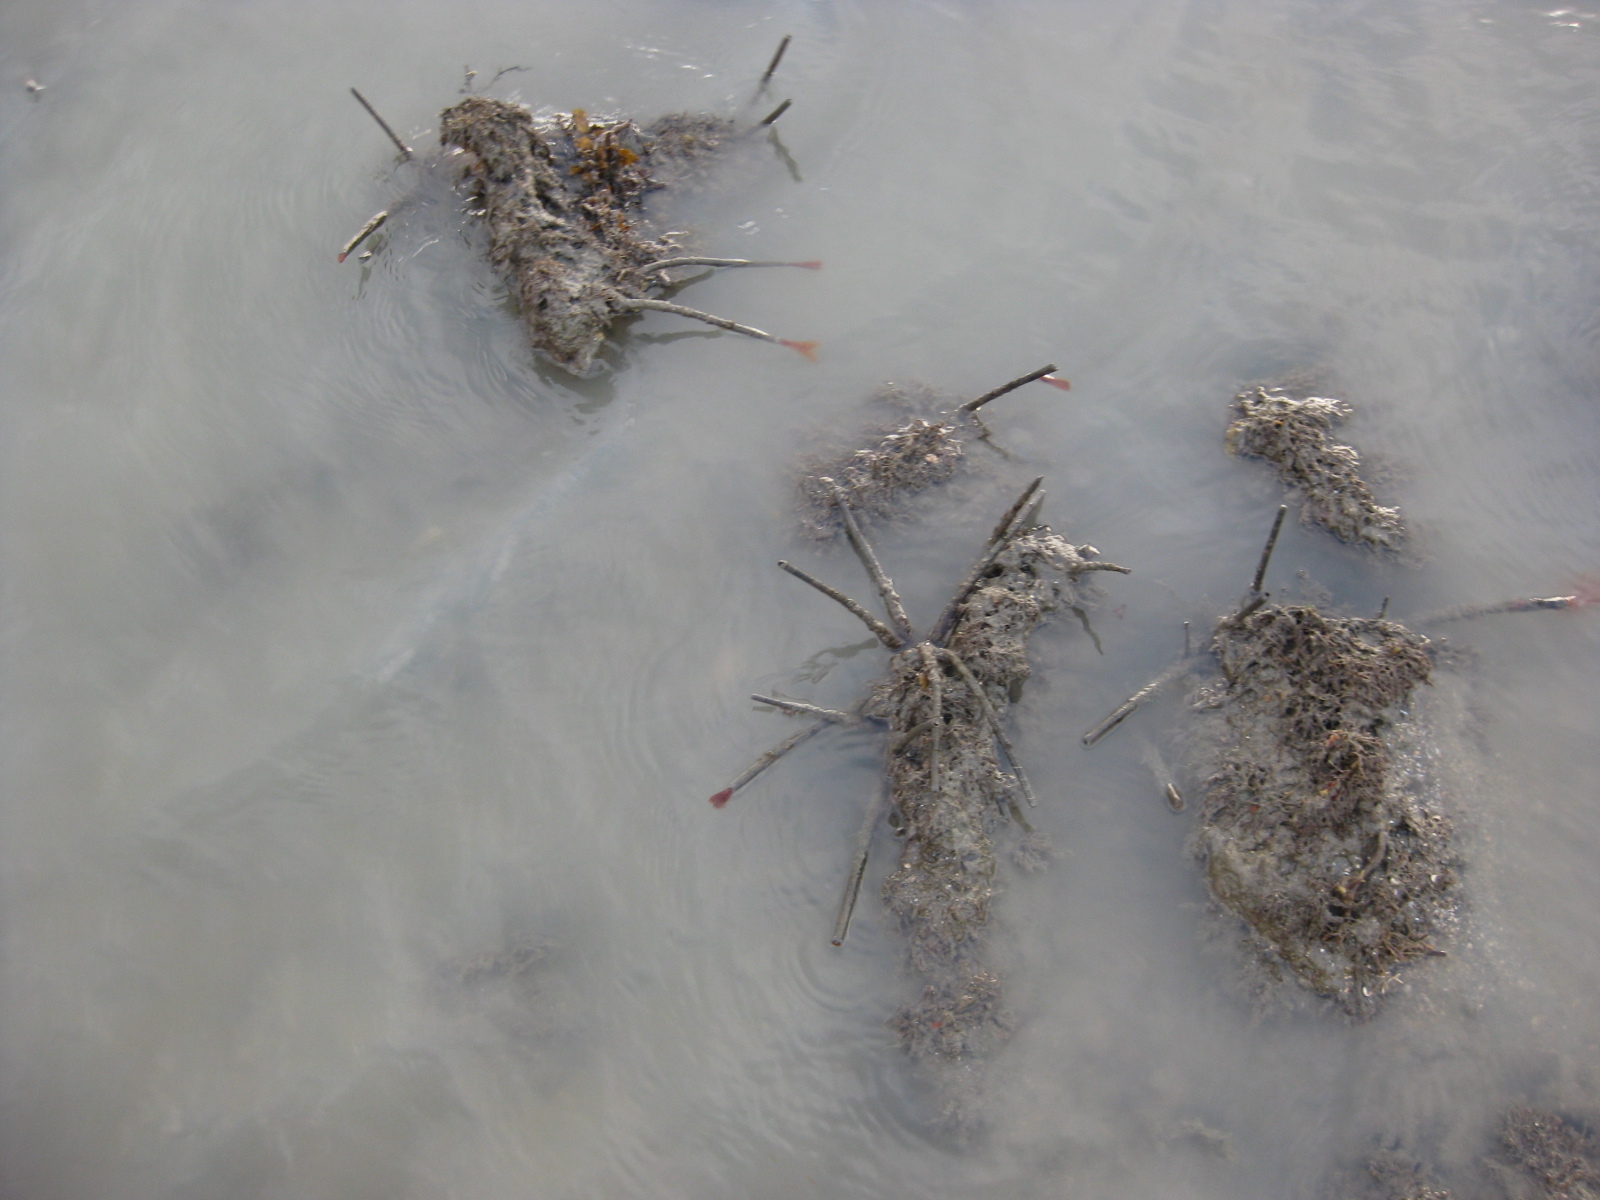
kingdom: Animalia
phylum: Annelida
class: Polychaeta
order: Sabellida
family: Sabellidae
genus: Sabella
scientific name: Sabella spallanzanii
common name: Feather duster worm
